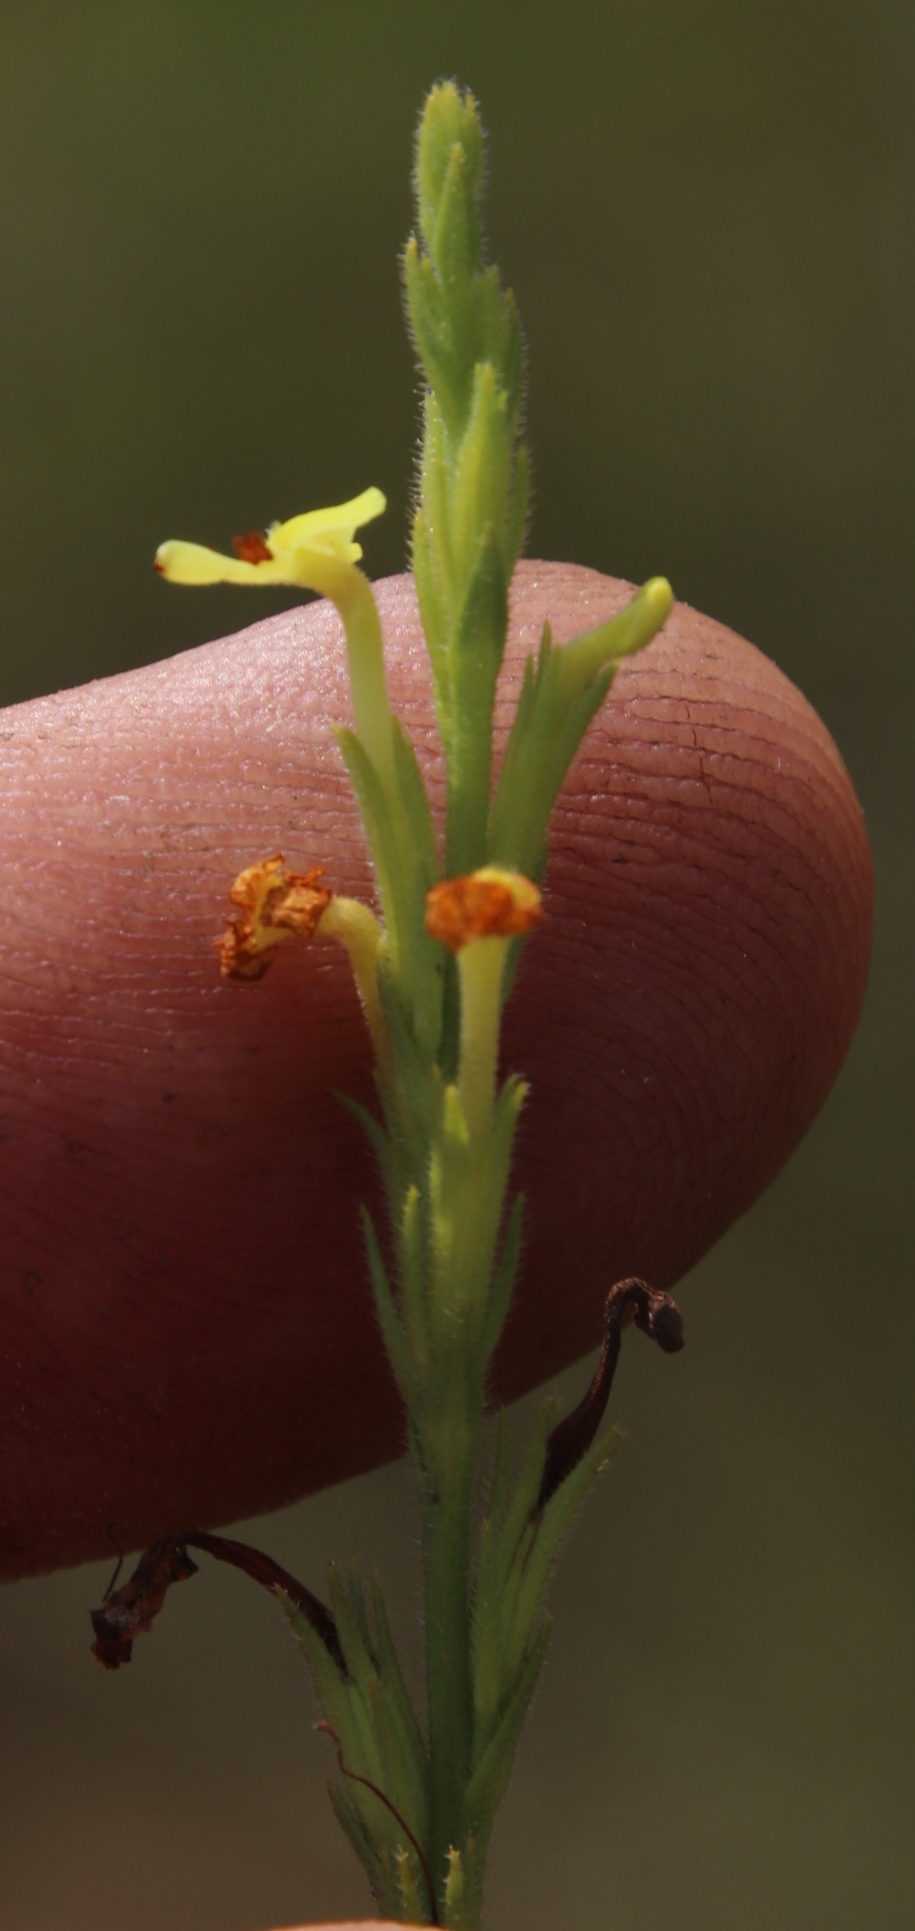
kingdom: Plantae
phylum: Tracheophyta
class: Magnoliopsida
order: Lamiales
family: Orobanchaceae
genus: Striga
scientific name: Striga asiatica
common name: Asiatic witchweed
